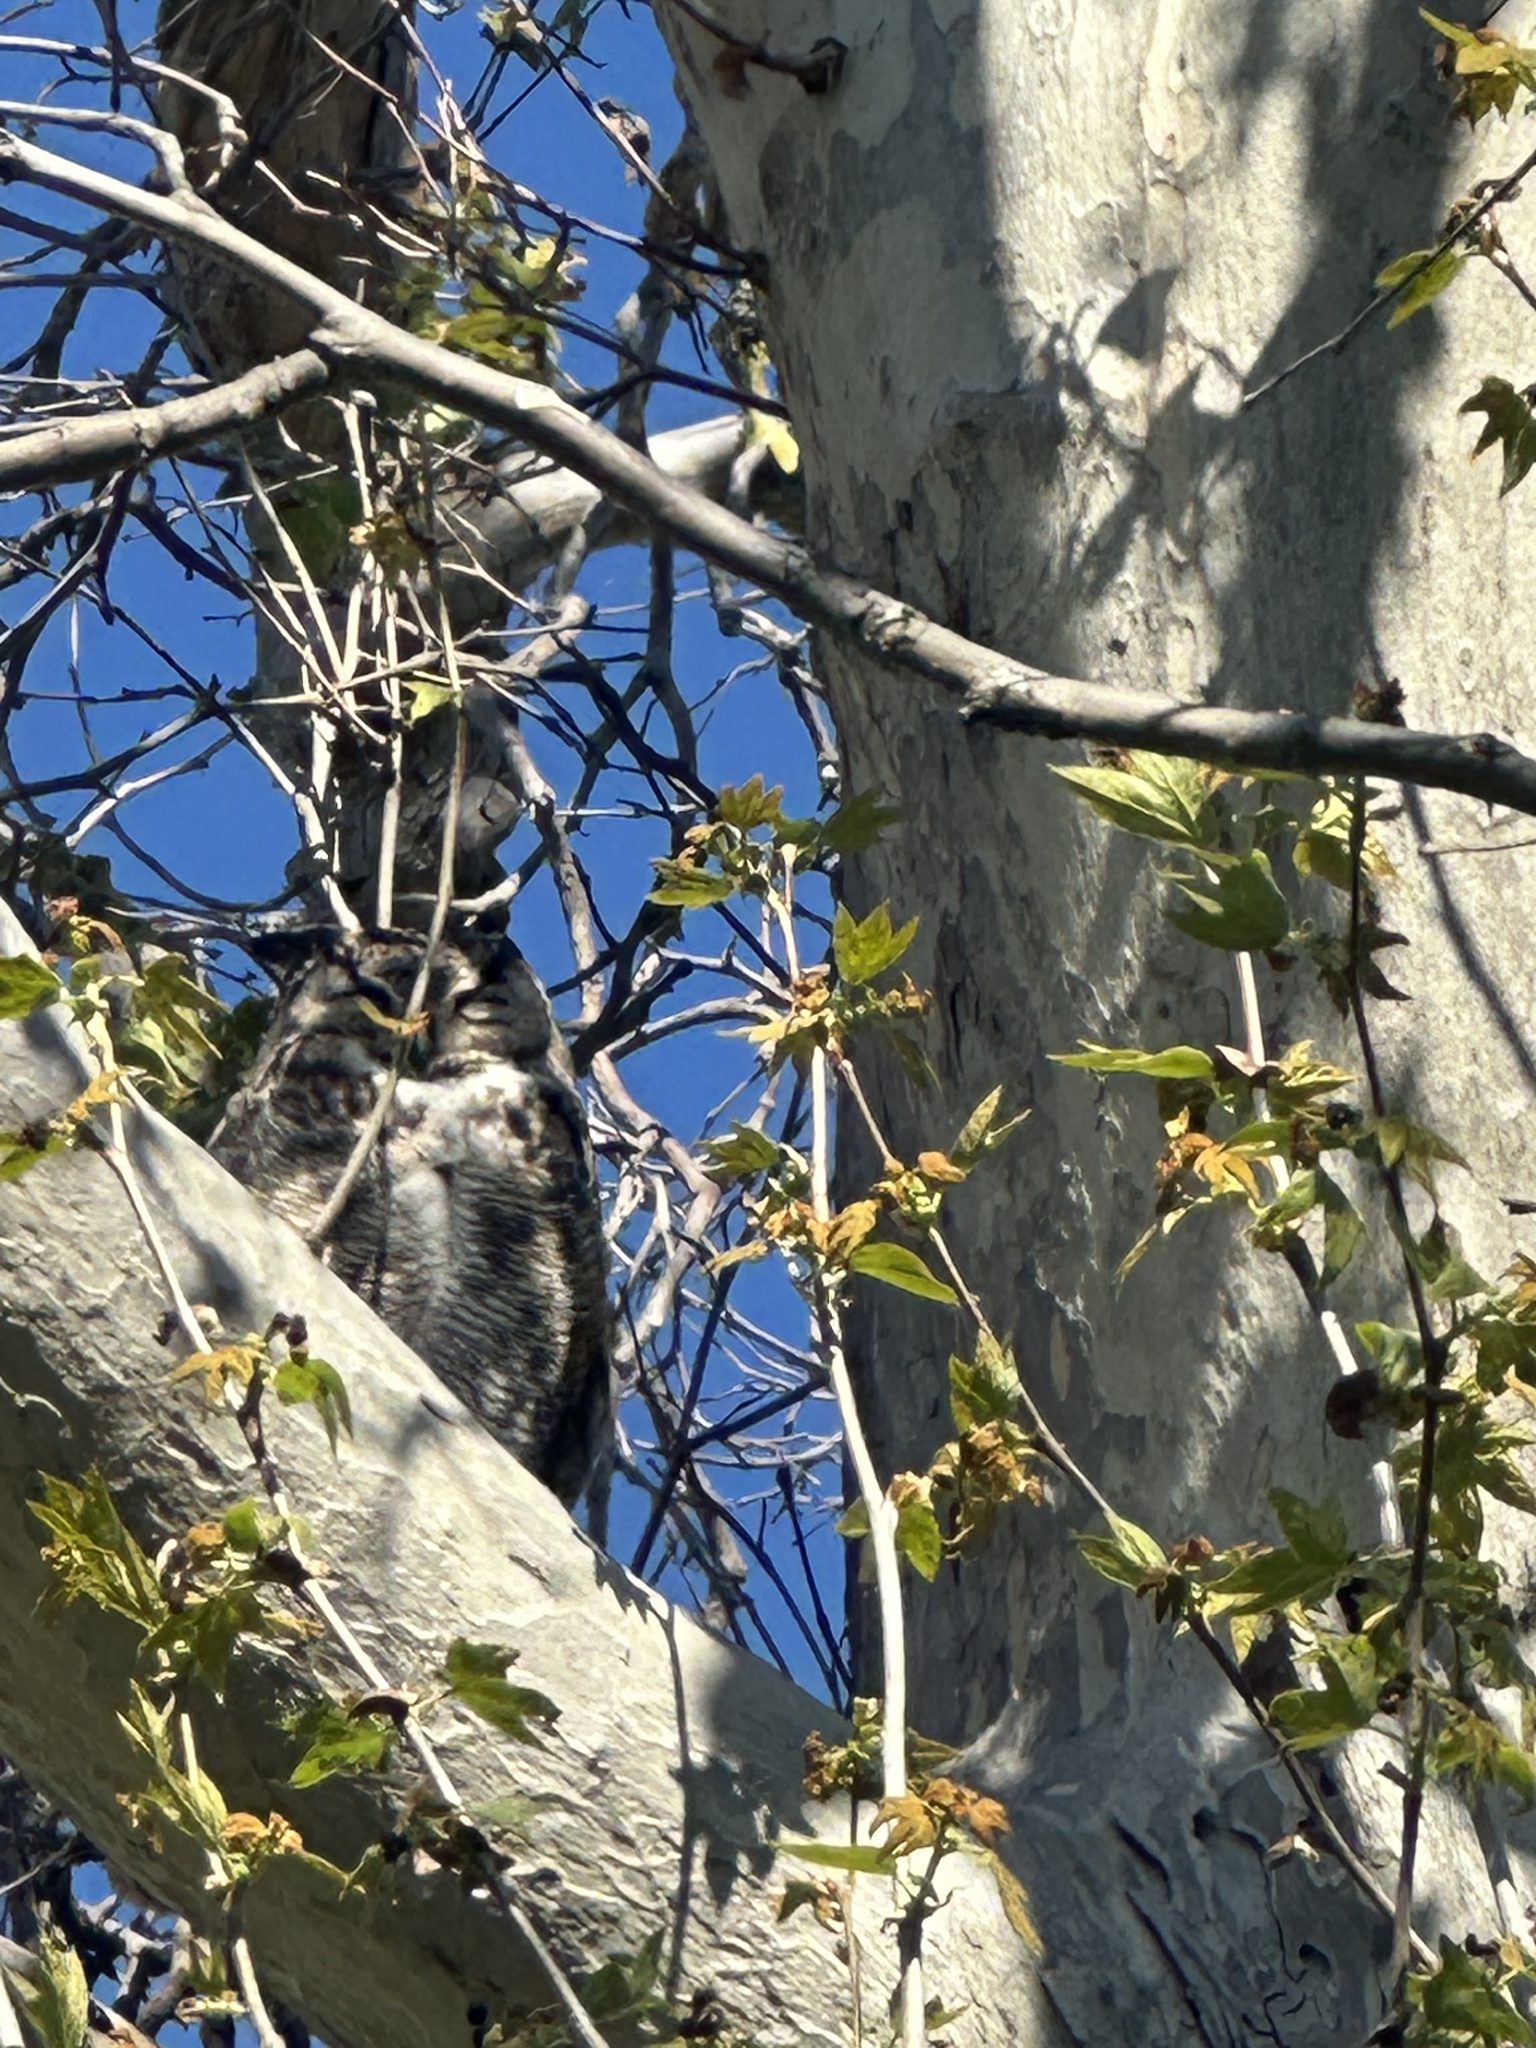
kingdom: Animalia
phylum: Chordata
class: Aves
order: Strigiformes
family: Strigidae
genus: Bubo
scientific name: Bubo virginianus
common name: Great horned owl
